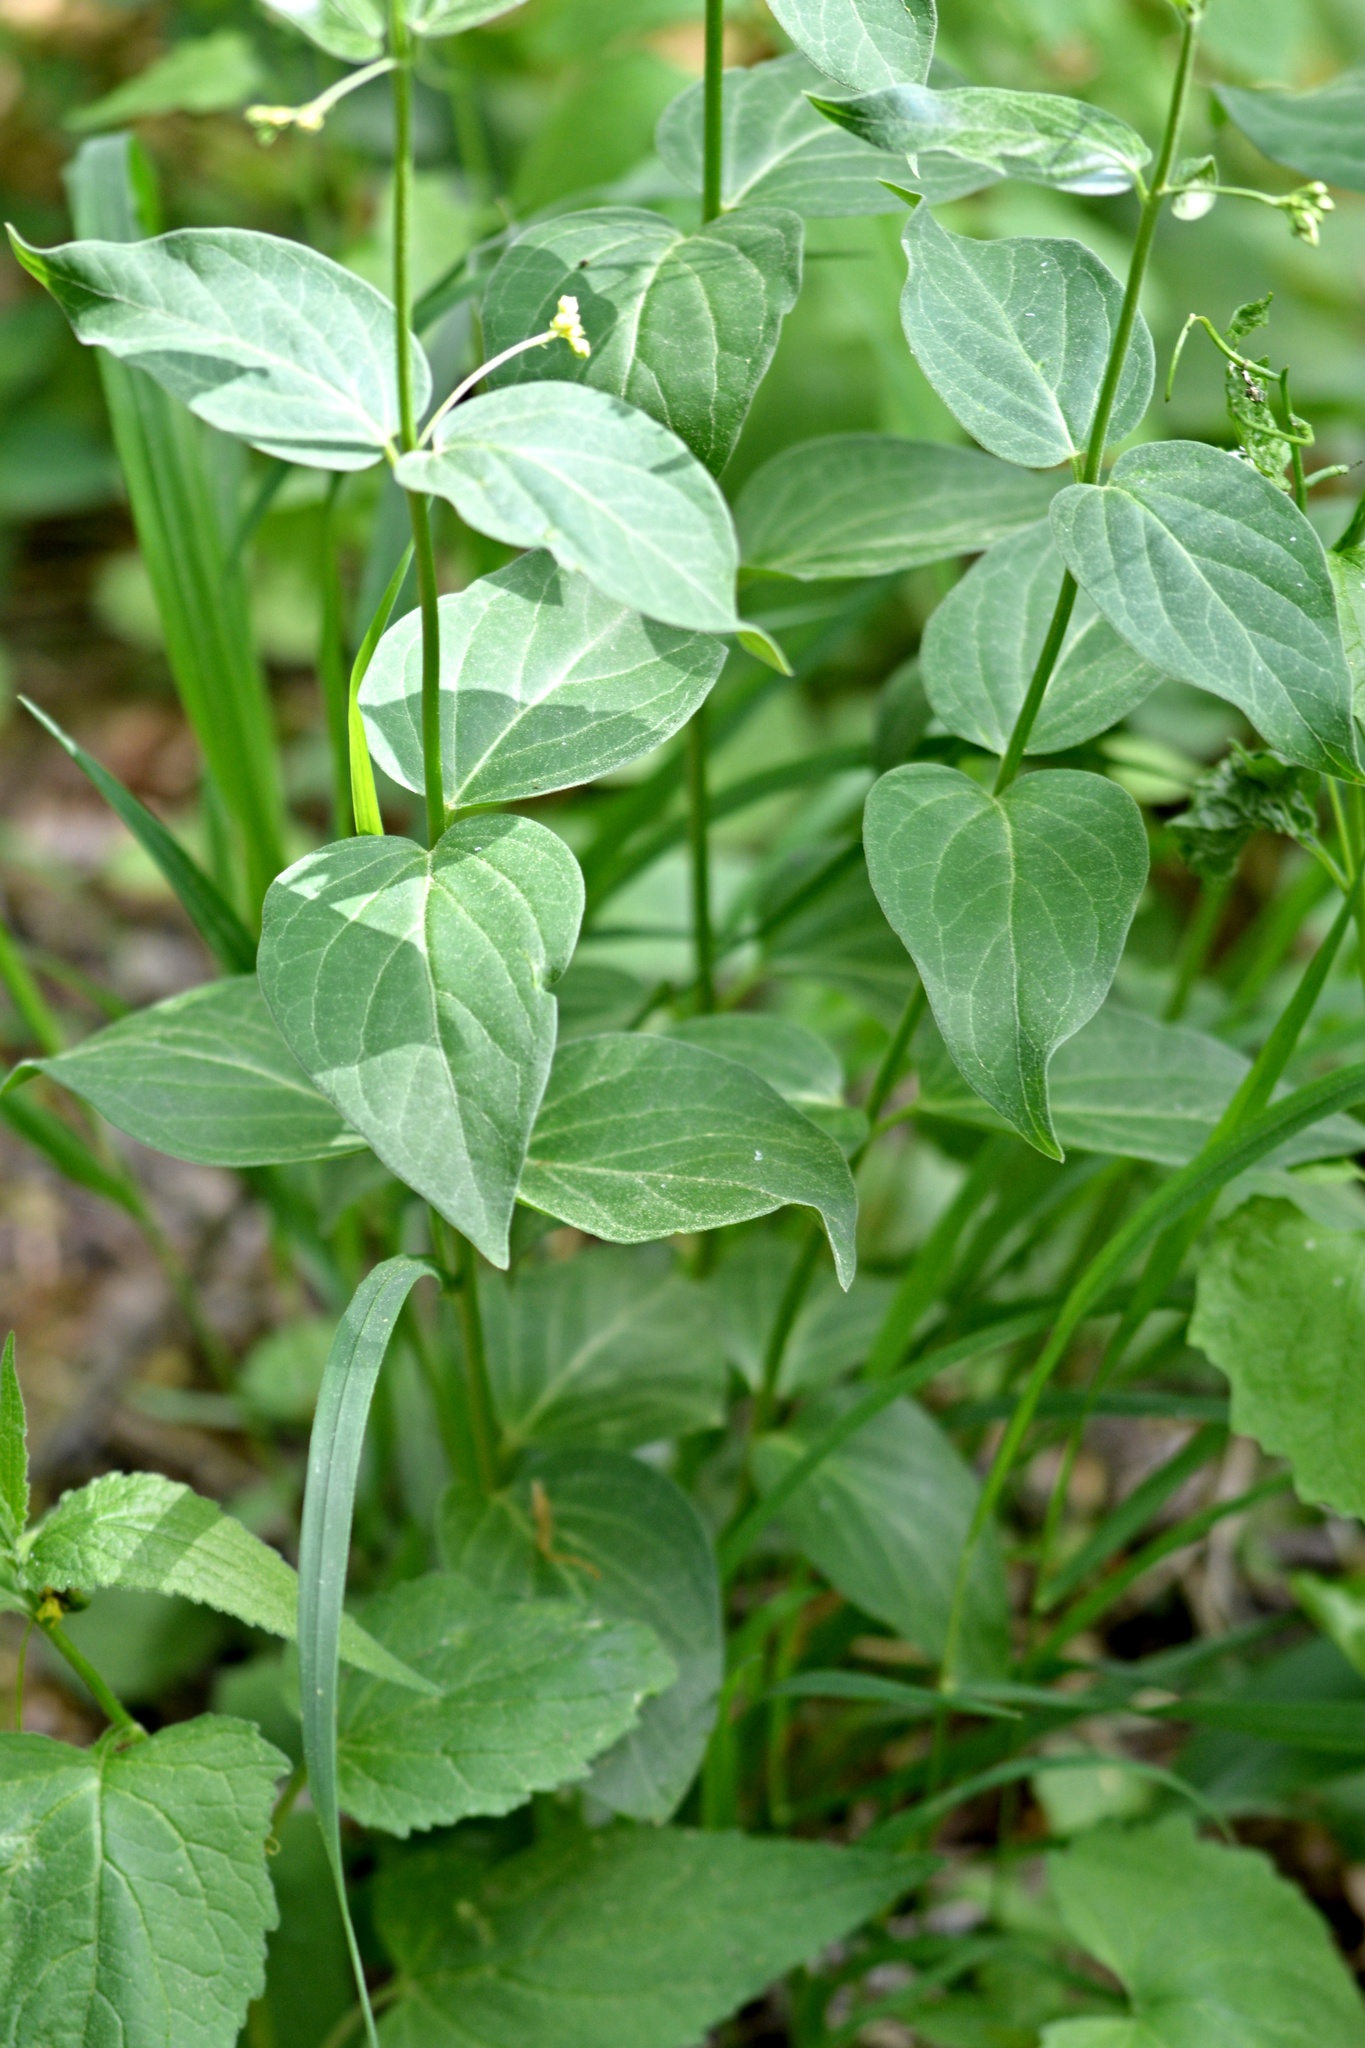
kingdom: Plantae
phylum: Tracheophyta
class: Magnoliopsida
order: Gentianales
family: Apocynaceae
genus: Vincetoxicum
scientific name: Vincetoxicum hirundinaria
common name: White swallowwort
